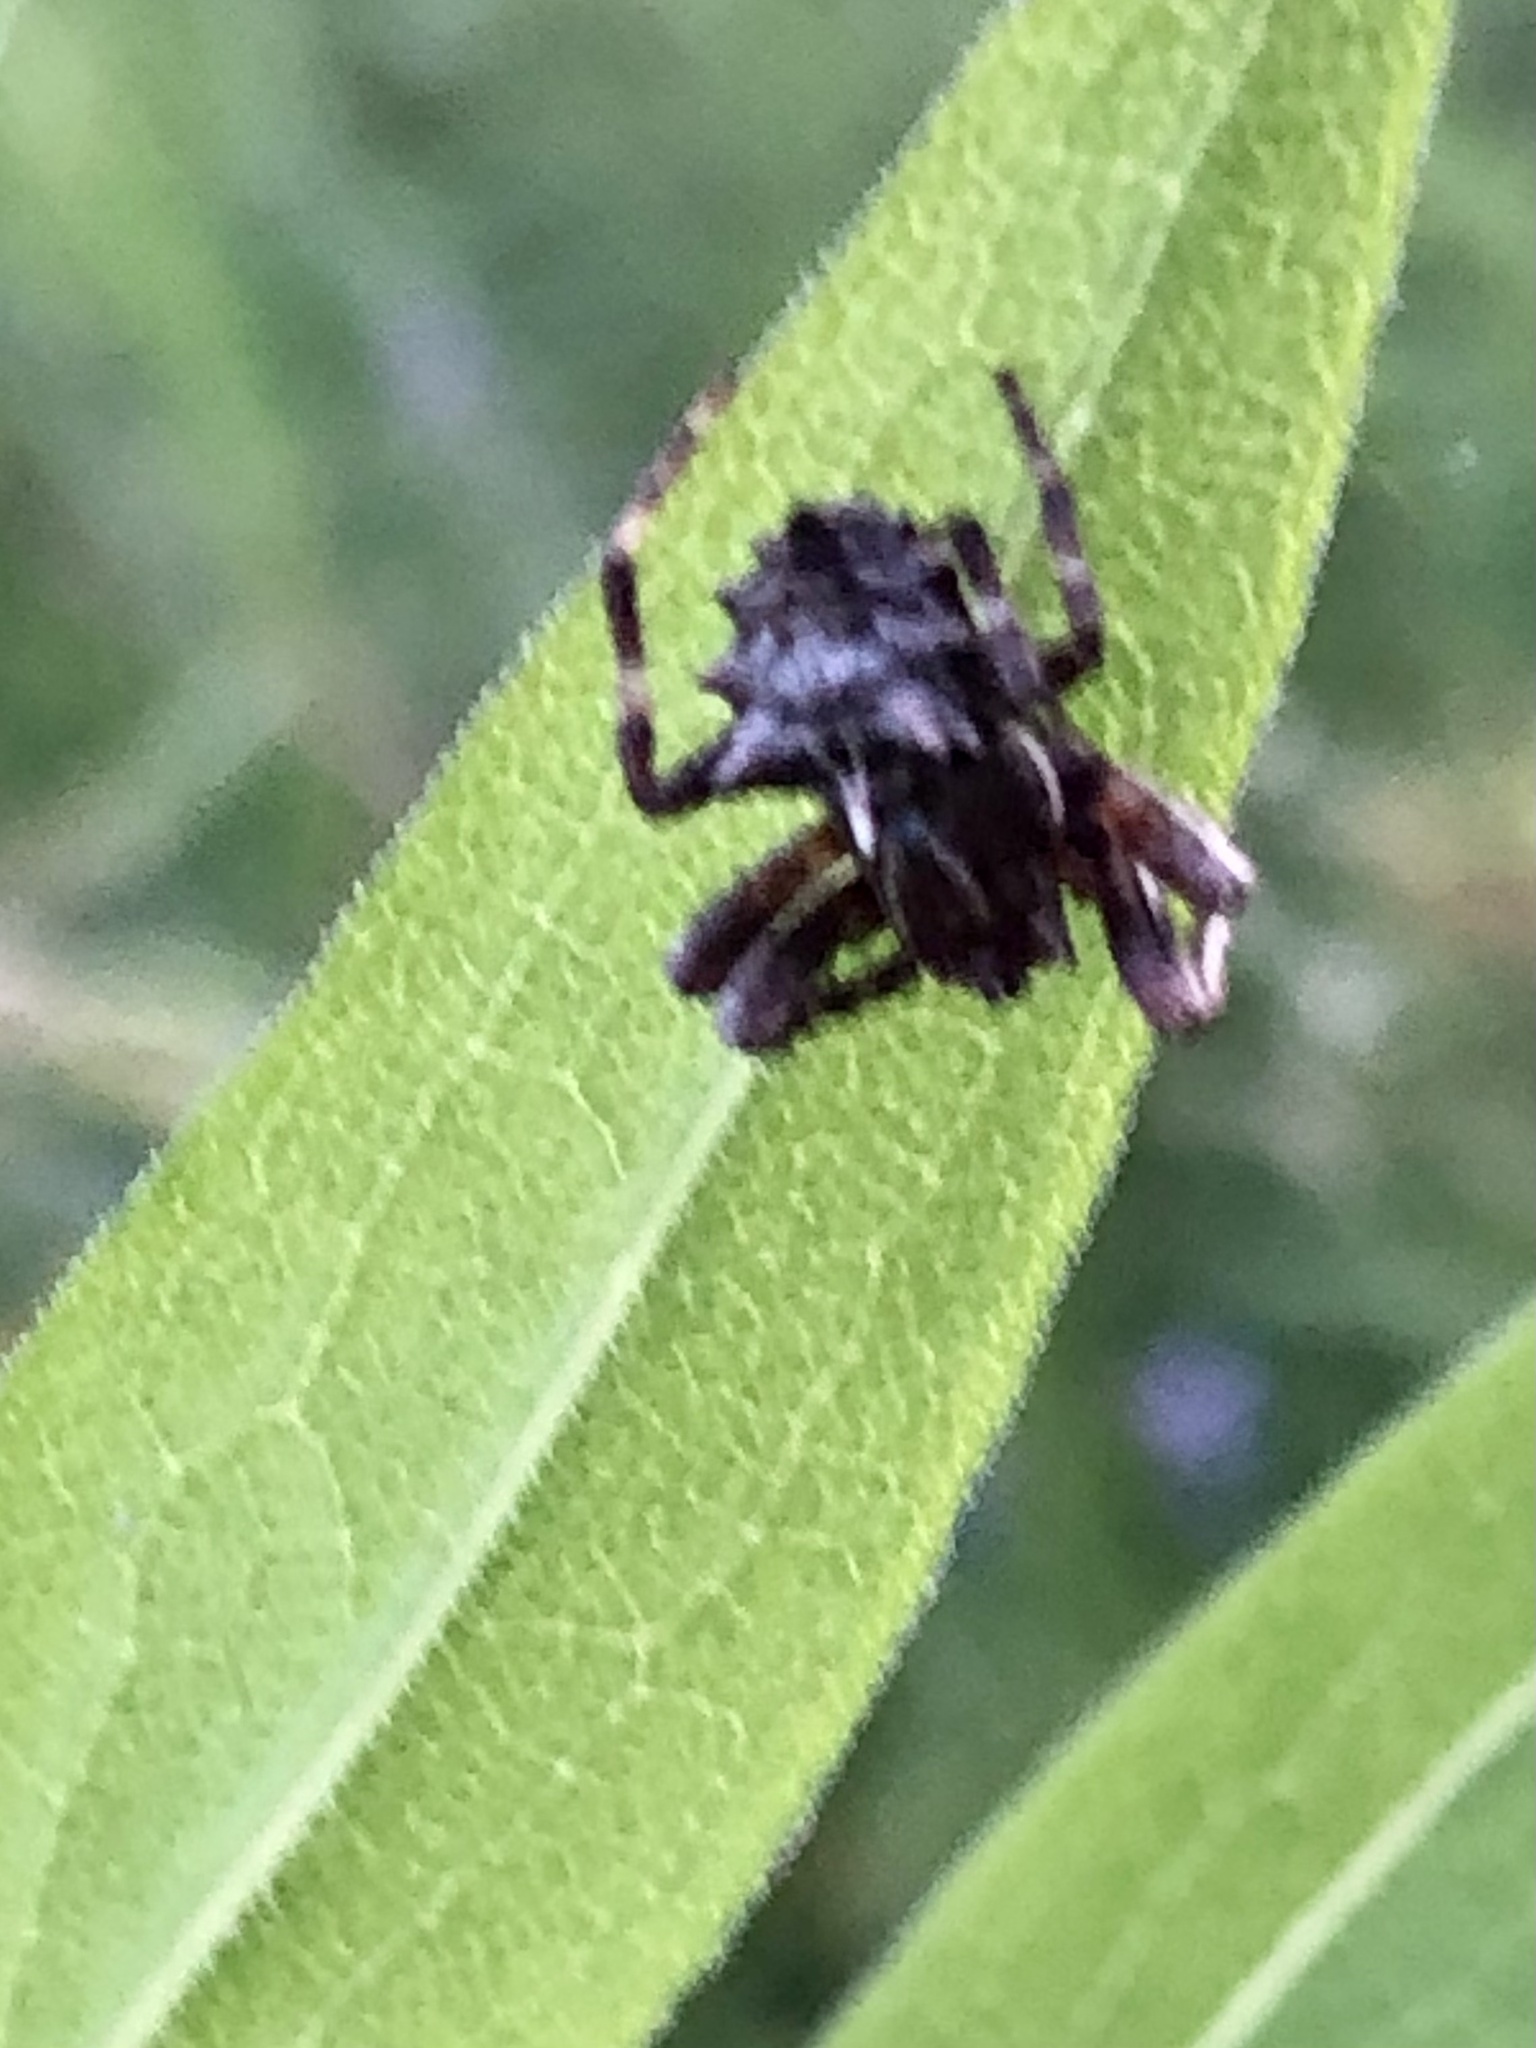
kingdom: Animalia
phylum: Arthropoda
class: Arachnida
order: Araneae
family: Araneidae
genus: Acanthepeira
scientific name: Acanthepeira stellata
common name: Starbellied orbweaver
